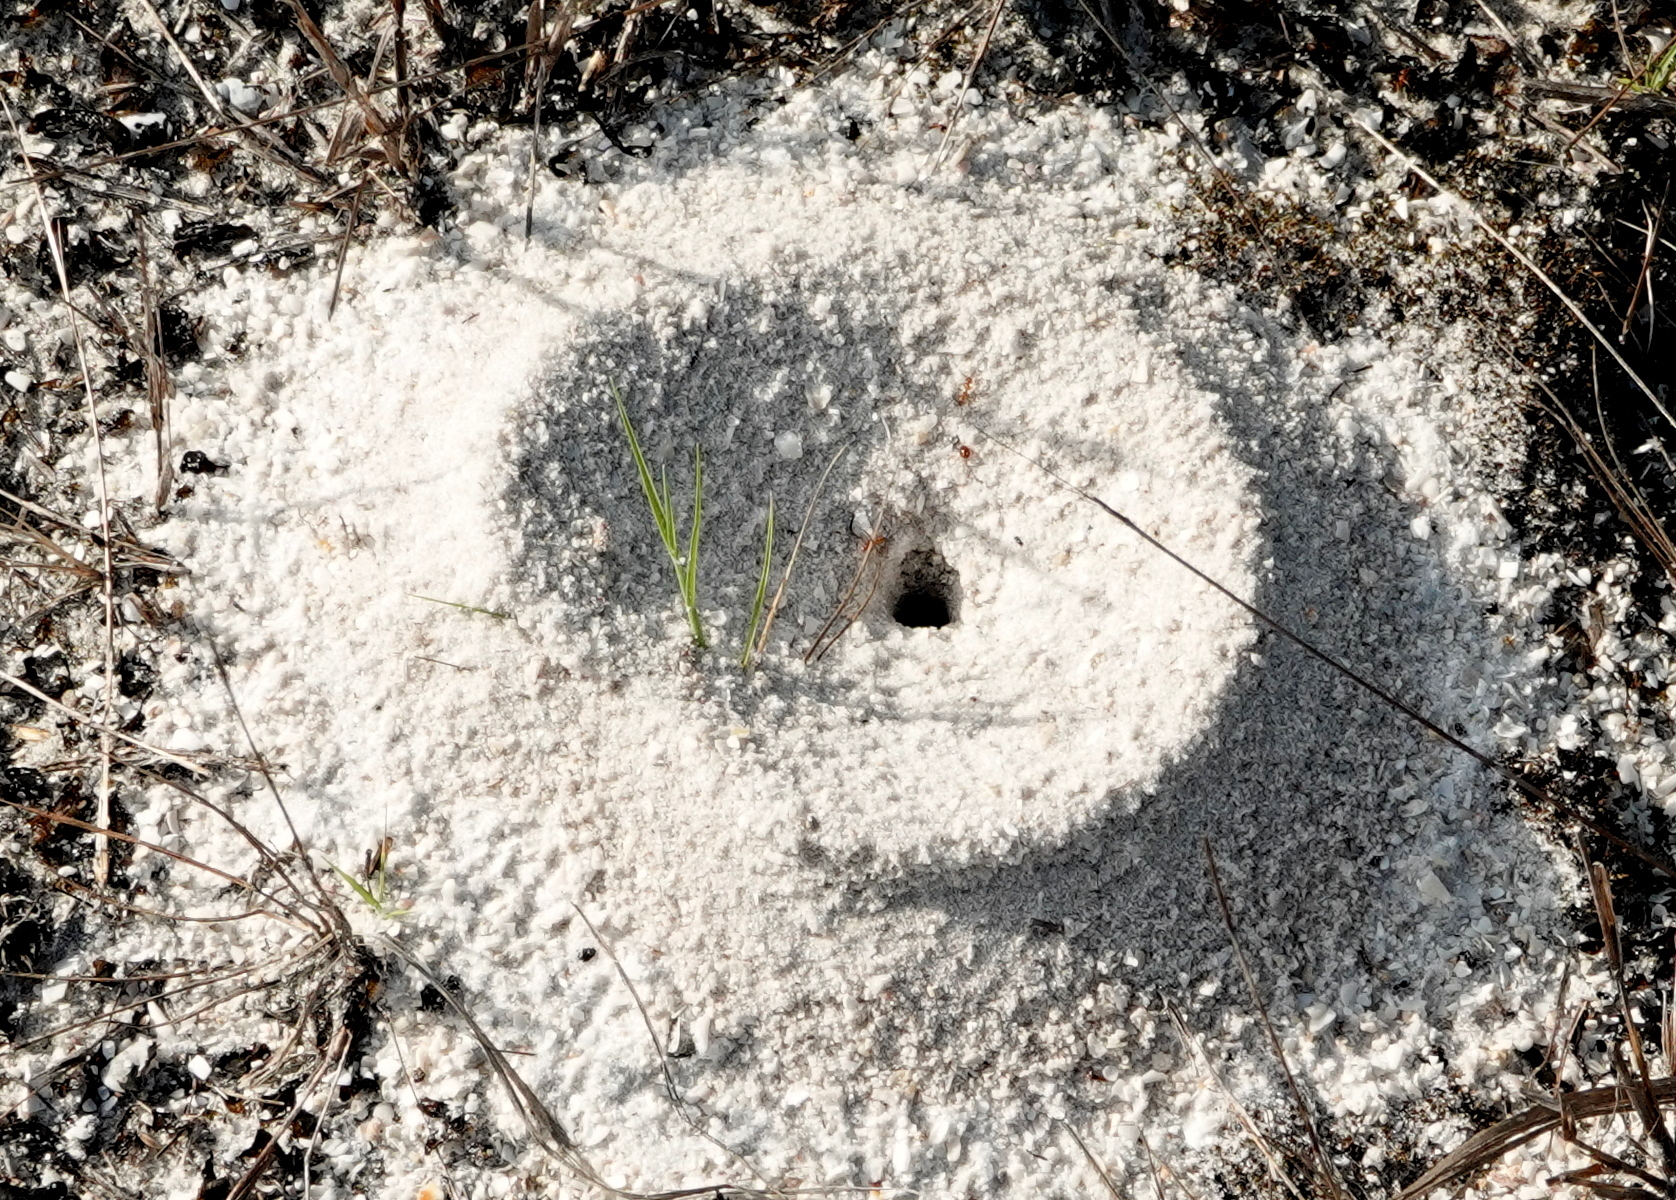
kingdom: Animalia
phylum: Arthropoda
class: Insecta
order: Hymenoptera
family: Formicidae
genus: Dorymyrmex
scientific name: Dorymyrmex bureni
